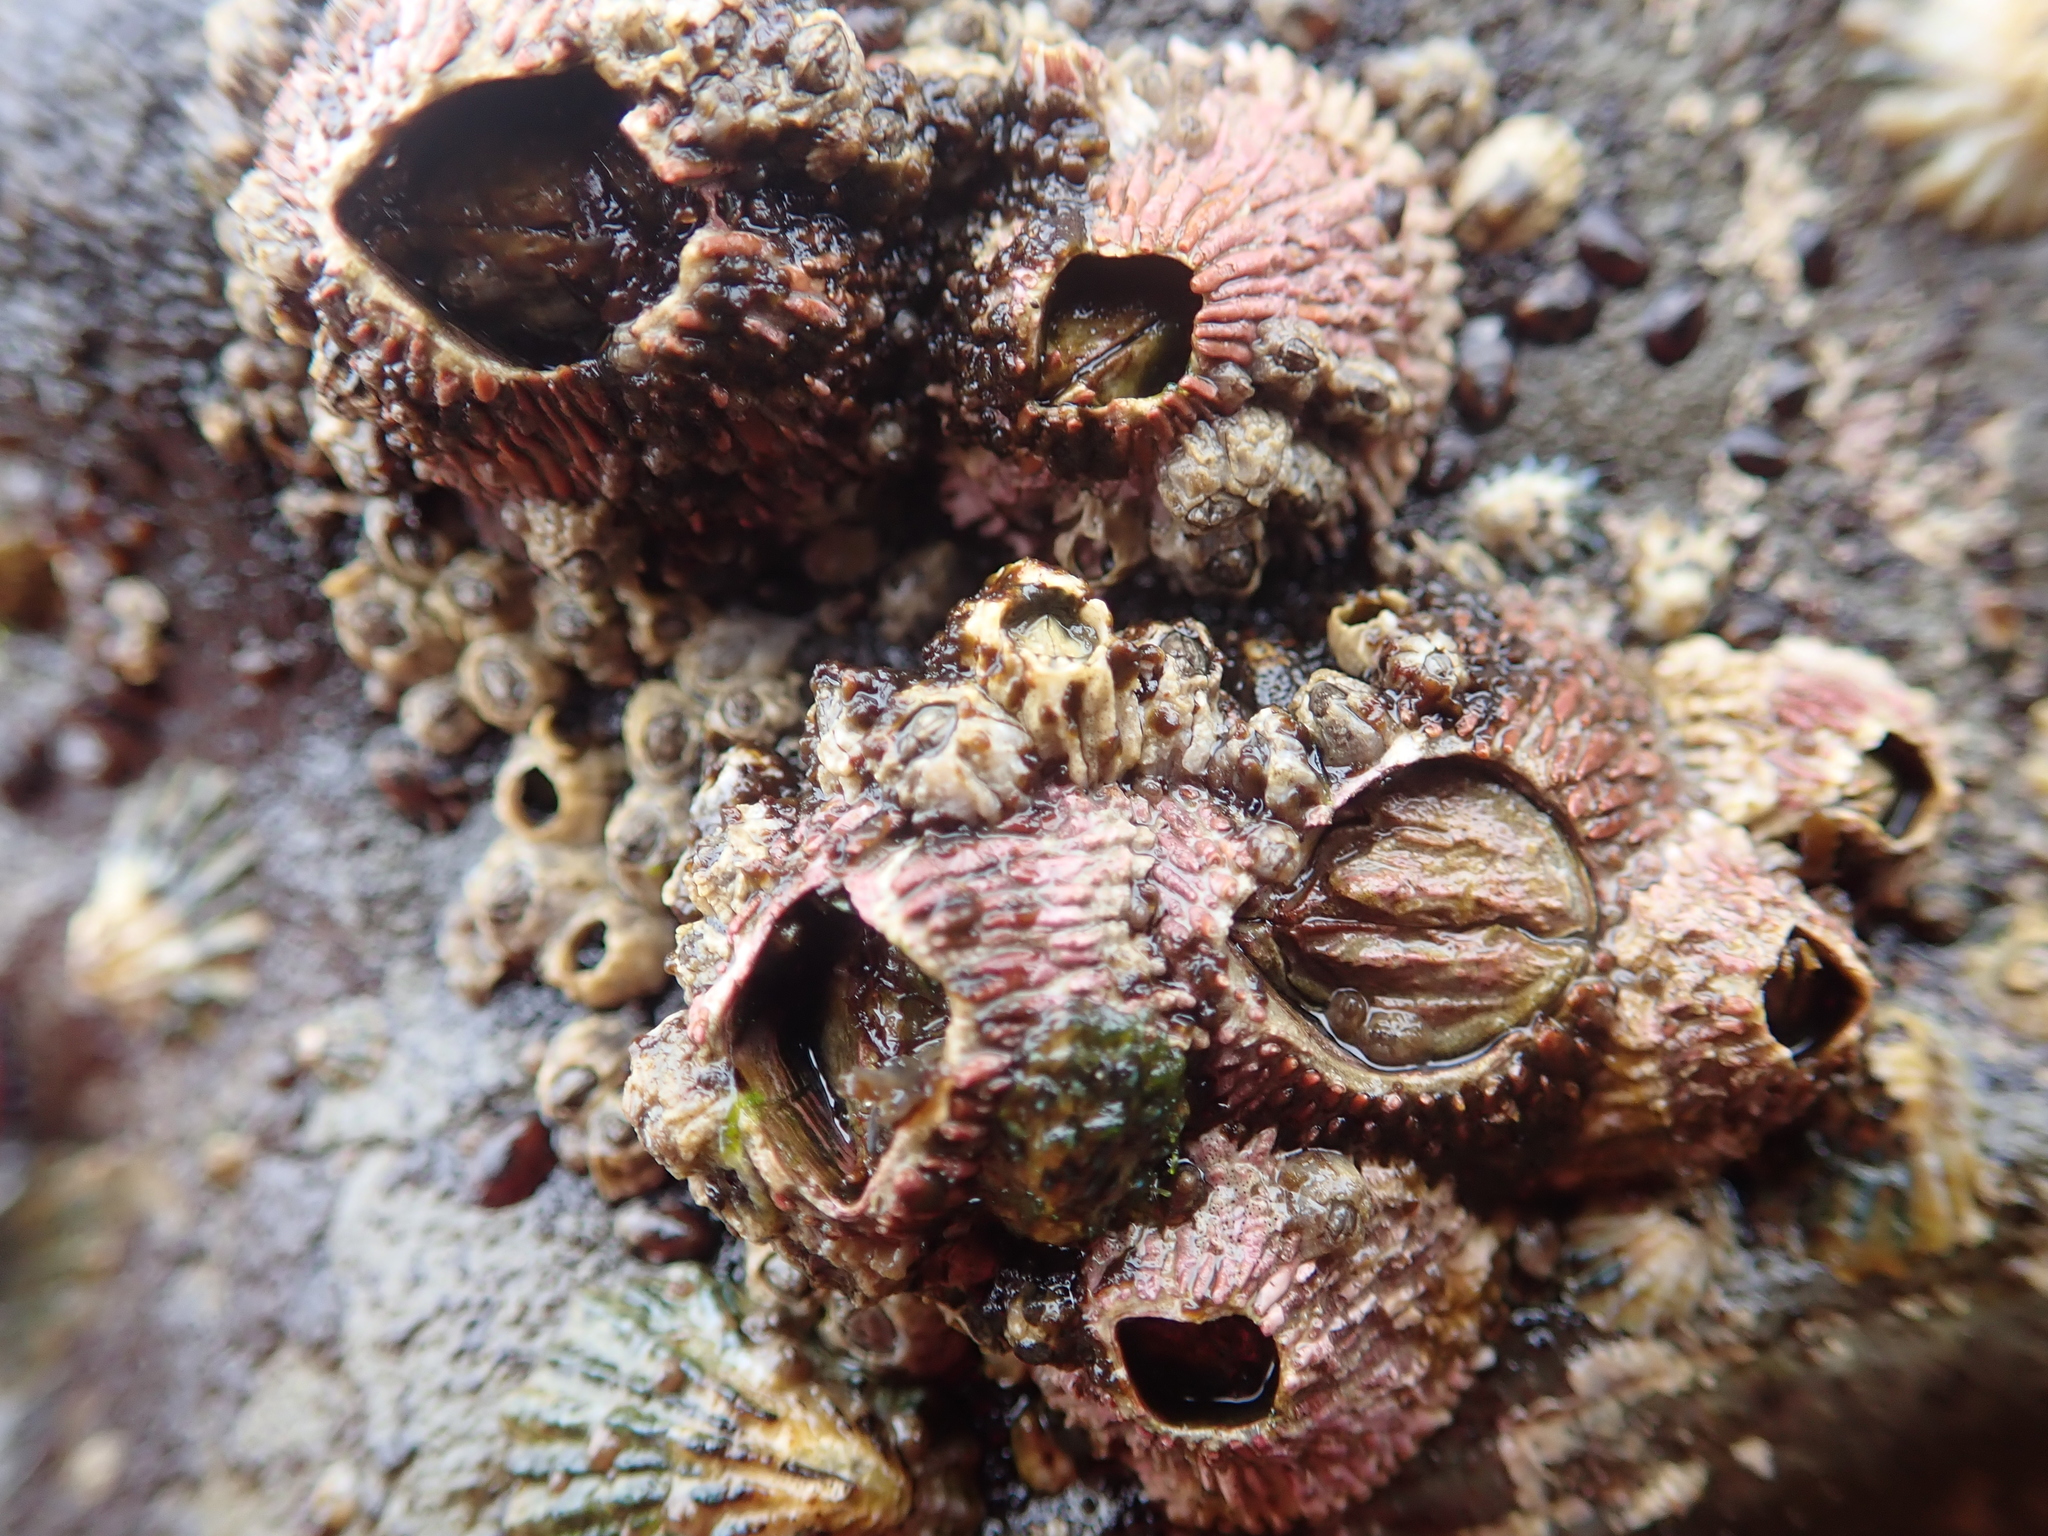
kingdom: Animalia
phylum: Arthropoda
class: Maxillopoda
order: Sessilia
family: Tetraclitidae
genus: Tetraclita
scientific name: Tetraclita rubescens
